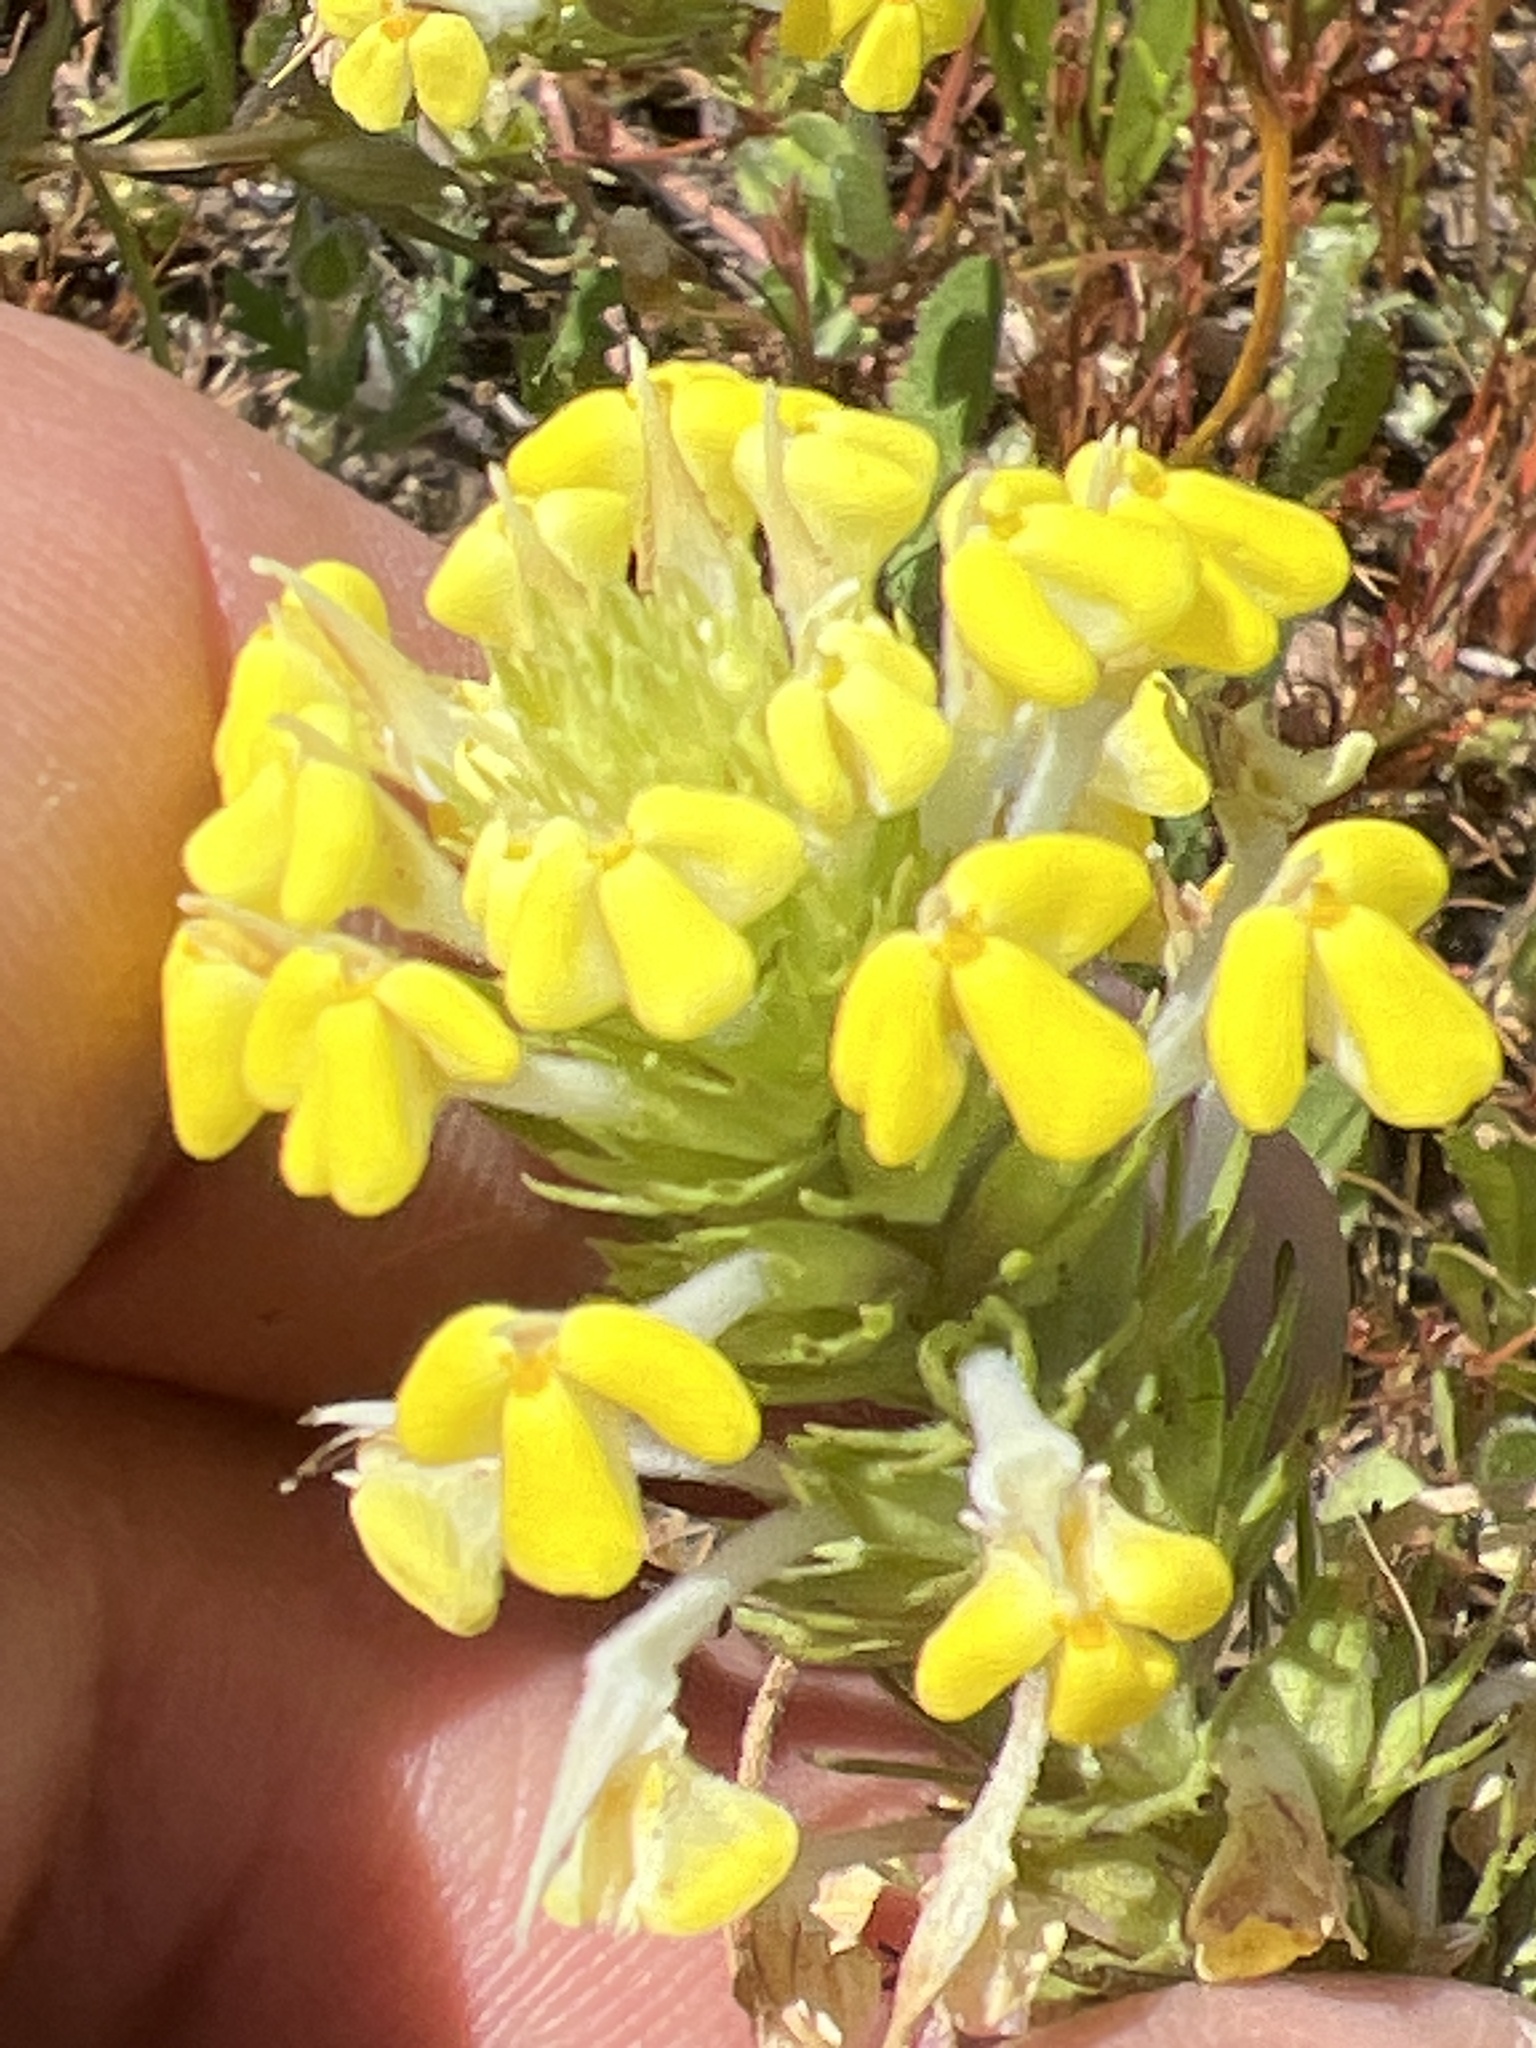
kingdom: Plantae
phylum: Tracheophyta
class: Magnoliopsida
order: Lamiales
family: Orobanchaceae
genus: Triphysaria
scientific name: Triphysaria versicolor
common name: Bearded false owl-clover
